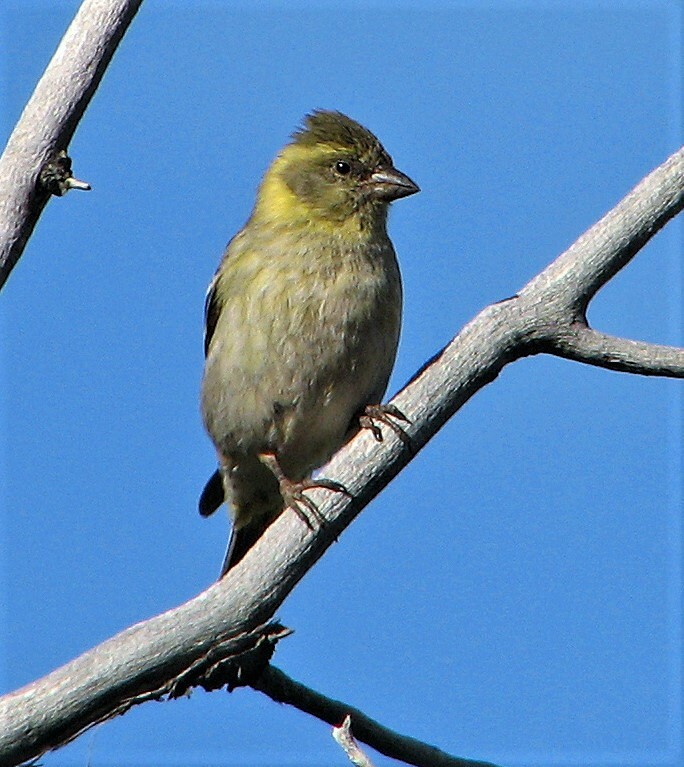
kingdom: Animalia
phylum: Chordata
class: Aves
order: Passeriformes
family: Fringillidae
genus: Spinus
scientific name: Spinus barbatus
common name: Black-chinned siskin
